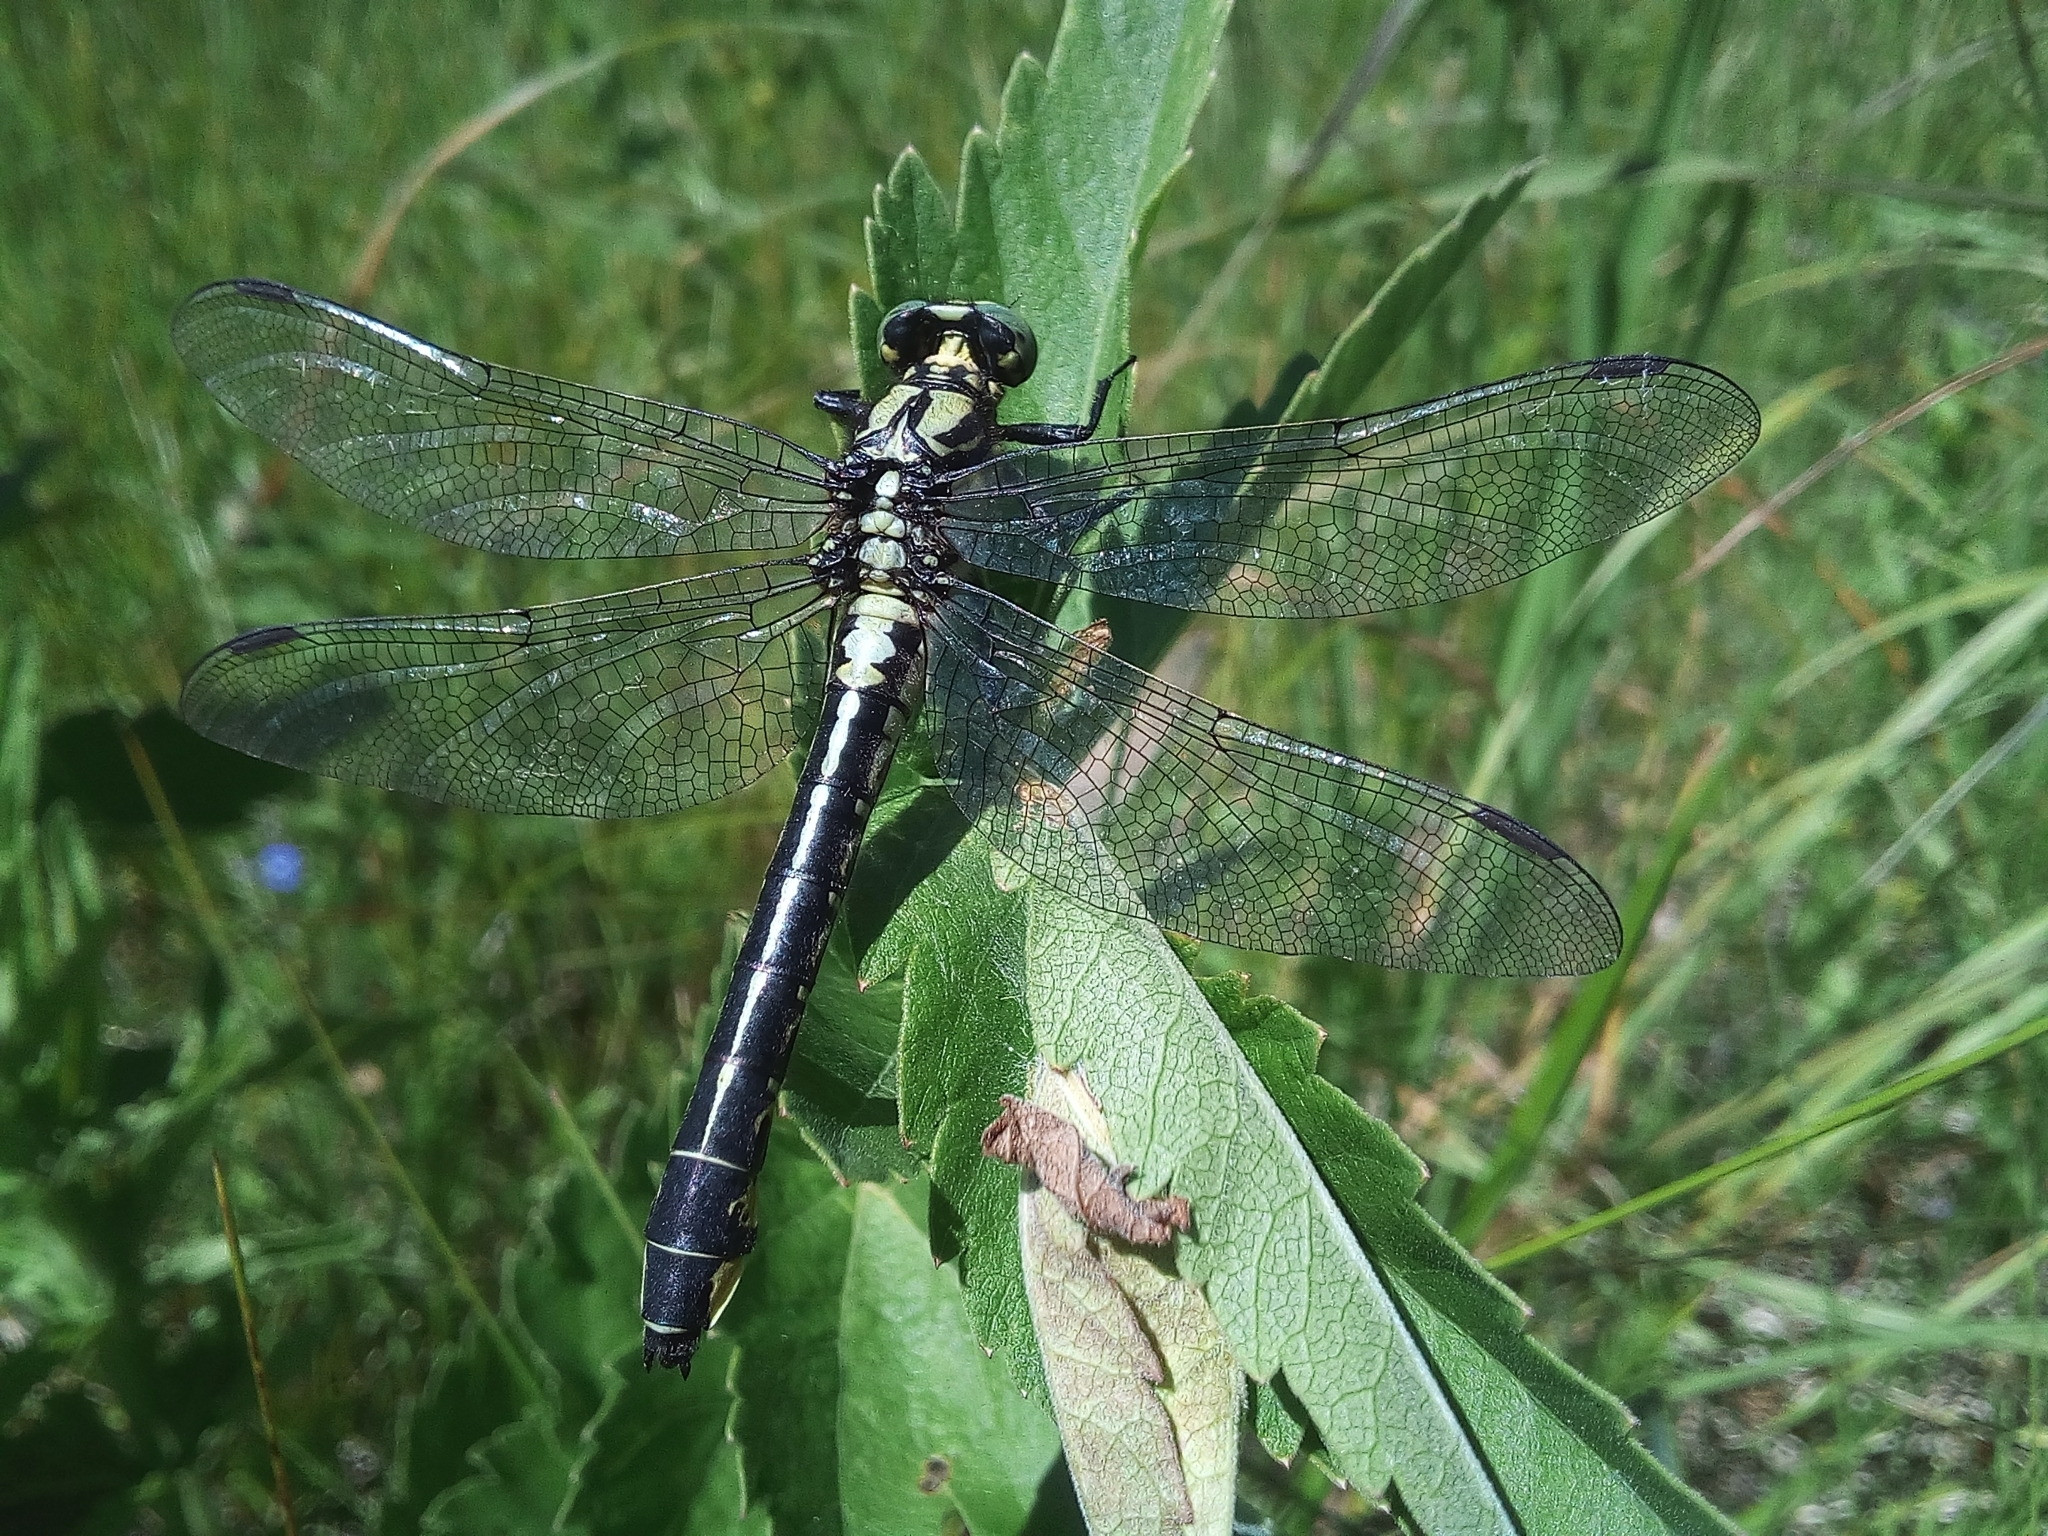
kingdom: Animalia
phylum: Arthropoda
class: Insecta
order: Odonata
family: Gomphidae
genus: Gomphus
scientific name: Gomphus vulgatissimus
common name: Club-tailed dragonfly
